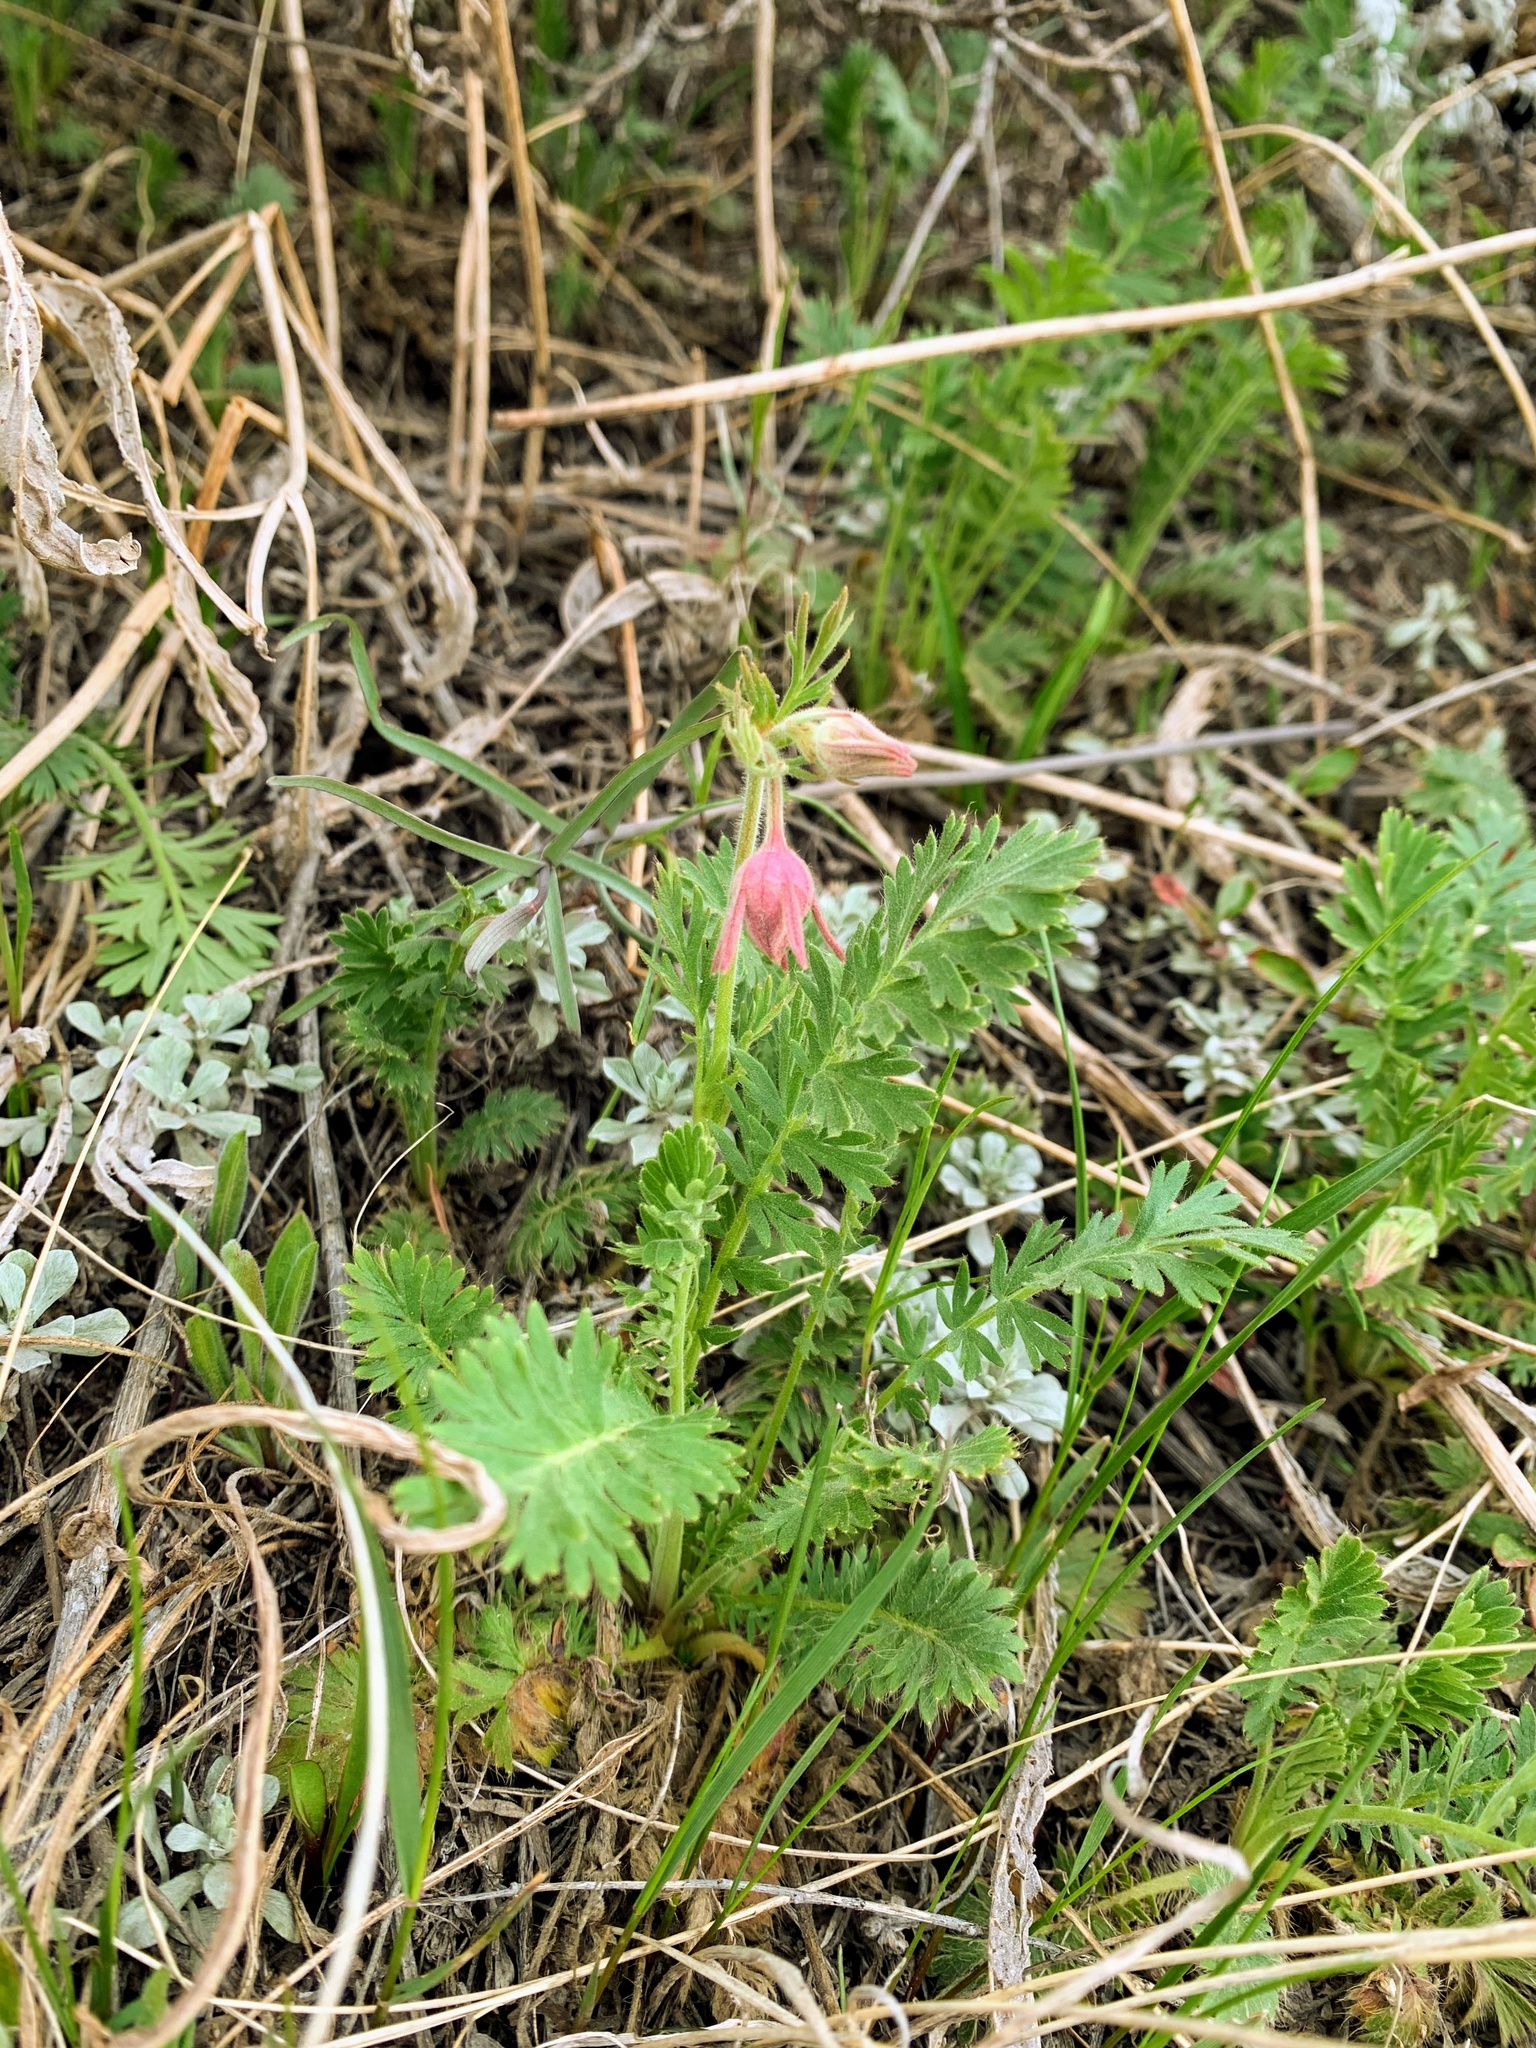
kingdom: Plantae
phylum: Tracheophyta
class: Magnoliopsida
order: Rosales
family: Rosaceae
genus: Geum
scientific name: Geum triflorum
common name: Old man's whiskers
